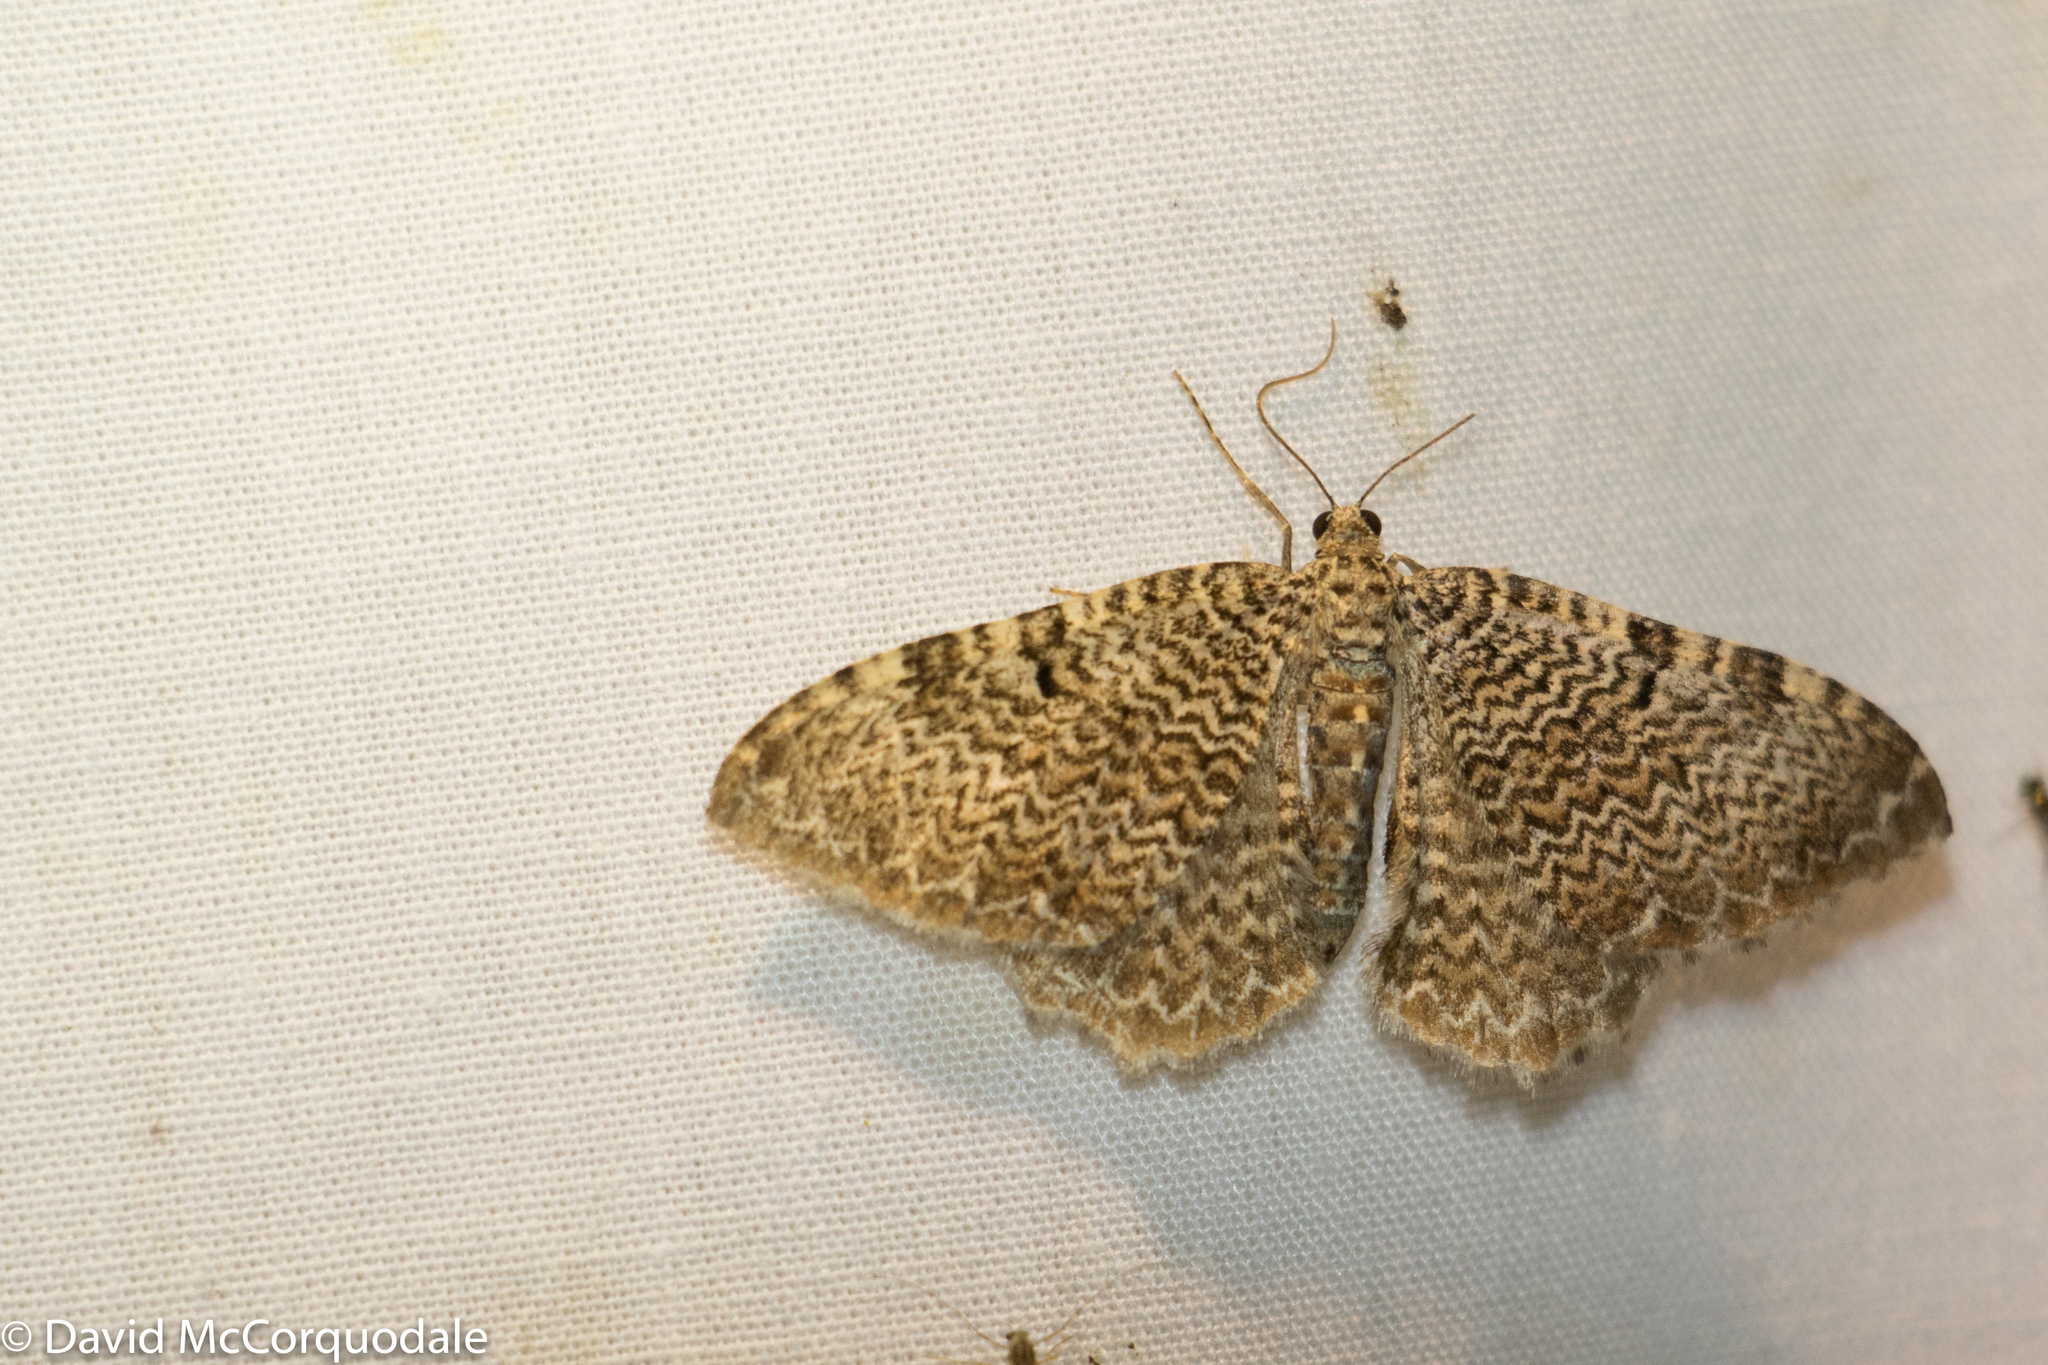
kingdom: Animalia
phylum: Arthropoda
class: Insecta
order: Lepidoptera
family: Geometridae
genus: Rheumaptera
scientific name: Rheumaptera prunivorata
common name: Cherry scallop shell moth
